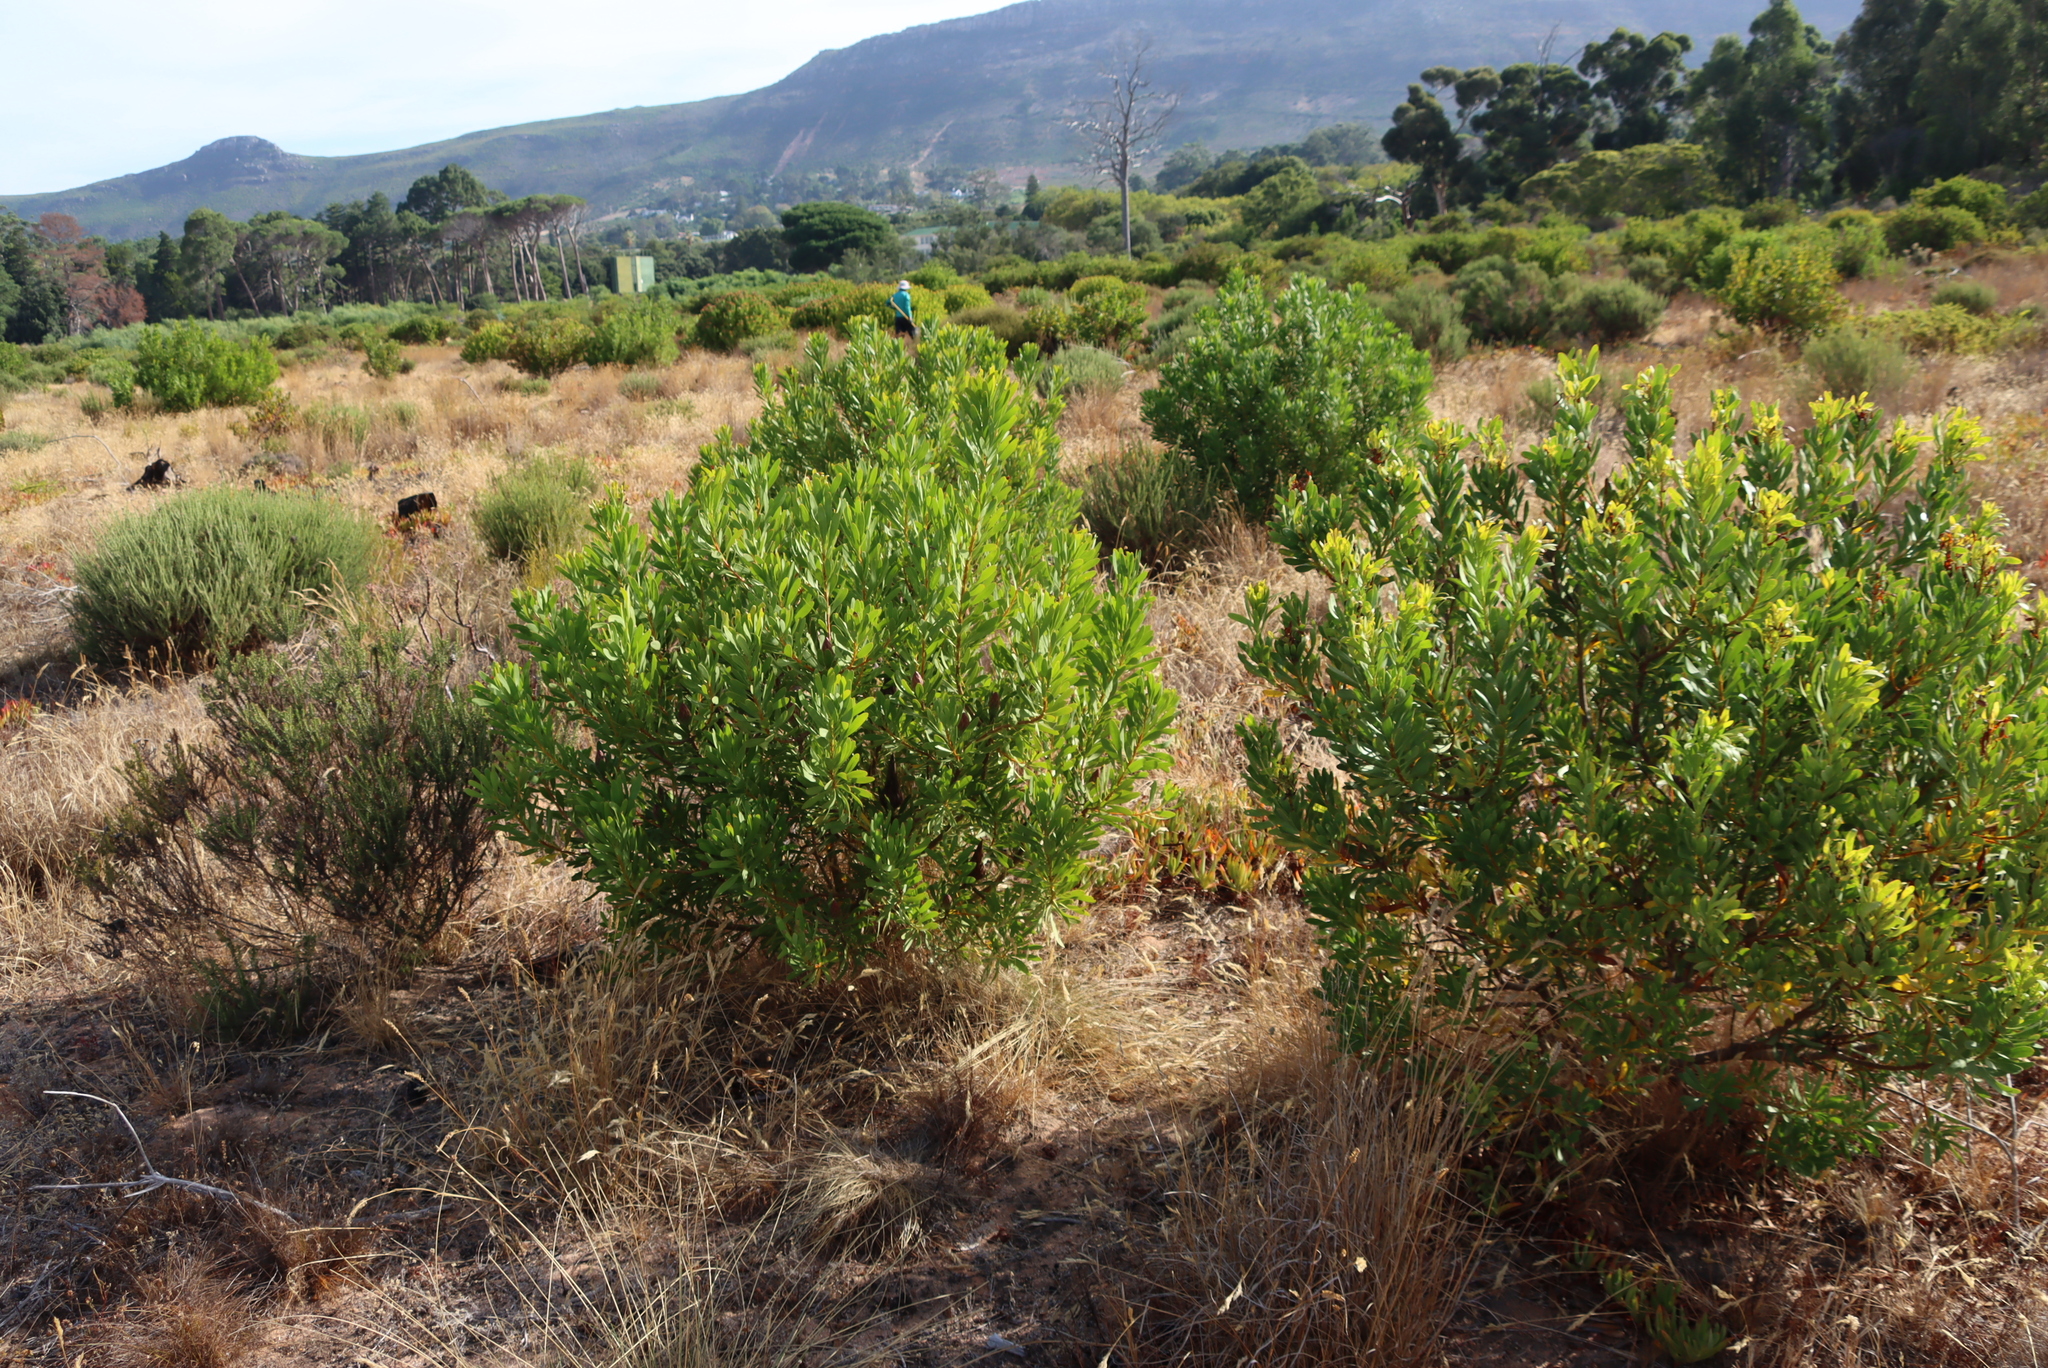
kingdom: Plantae
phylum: Tracheophyta
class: Magnoliopsida
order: Proteales
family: Proteaceae
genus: Protea
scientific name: Protea repens
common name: Sugarbush
